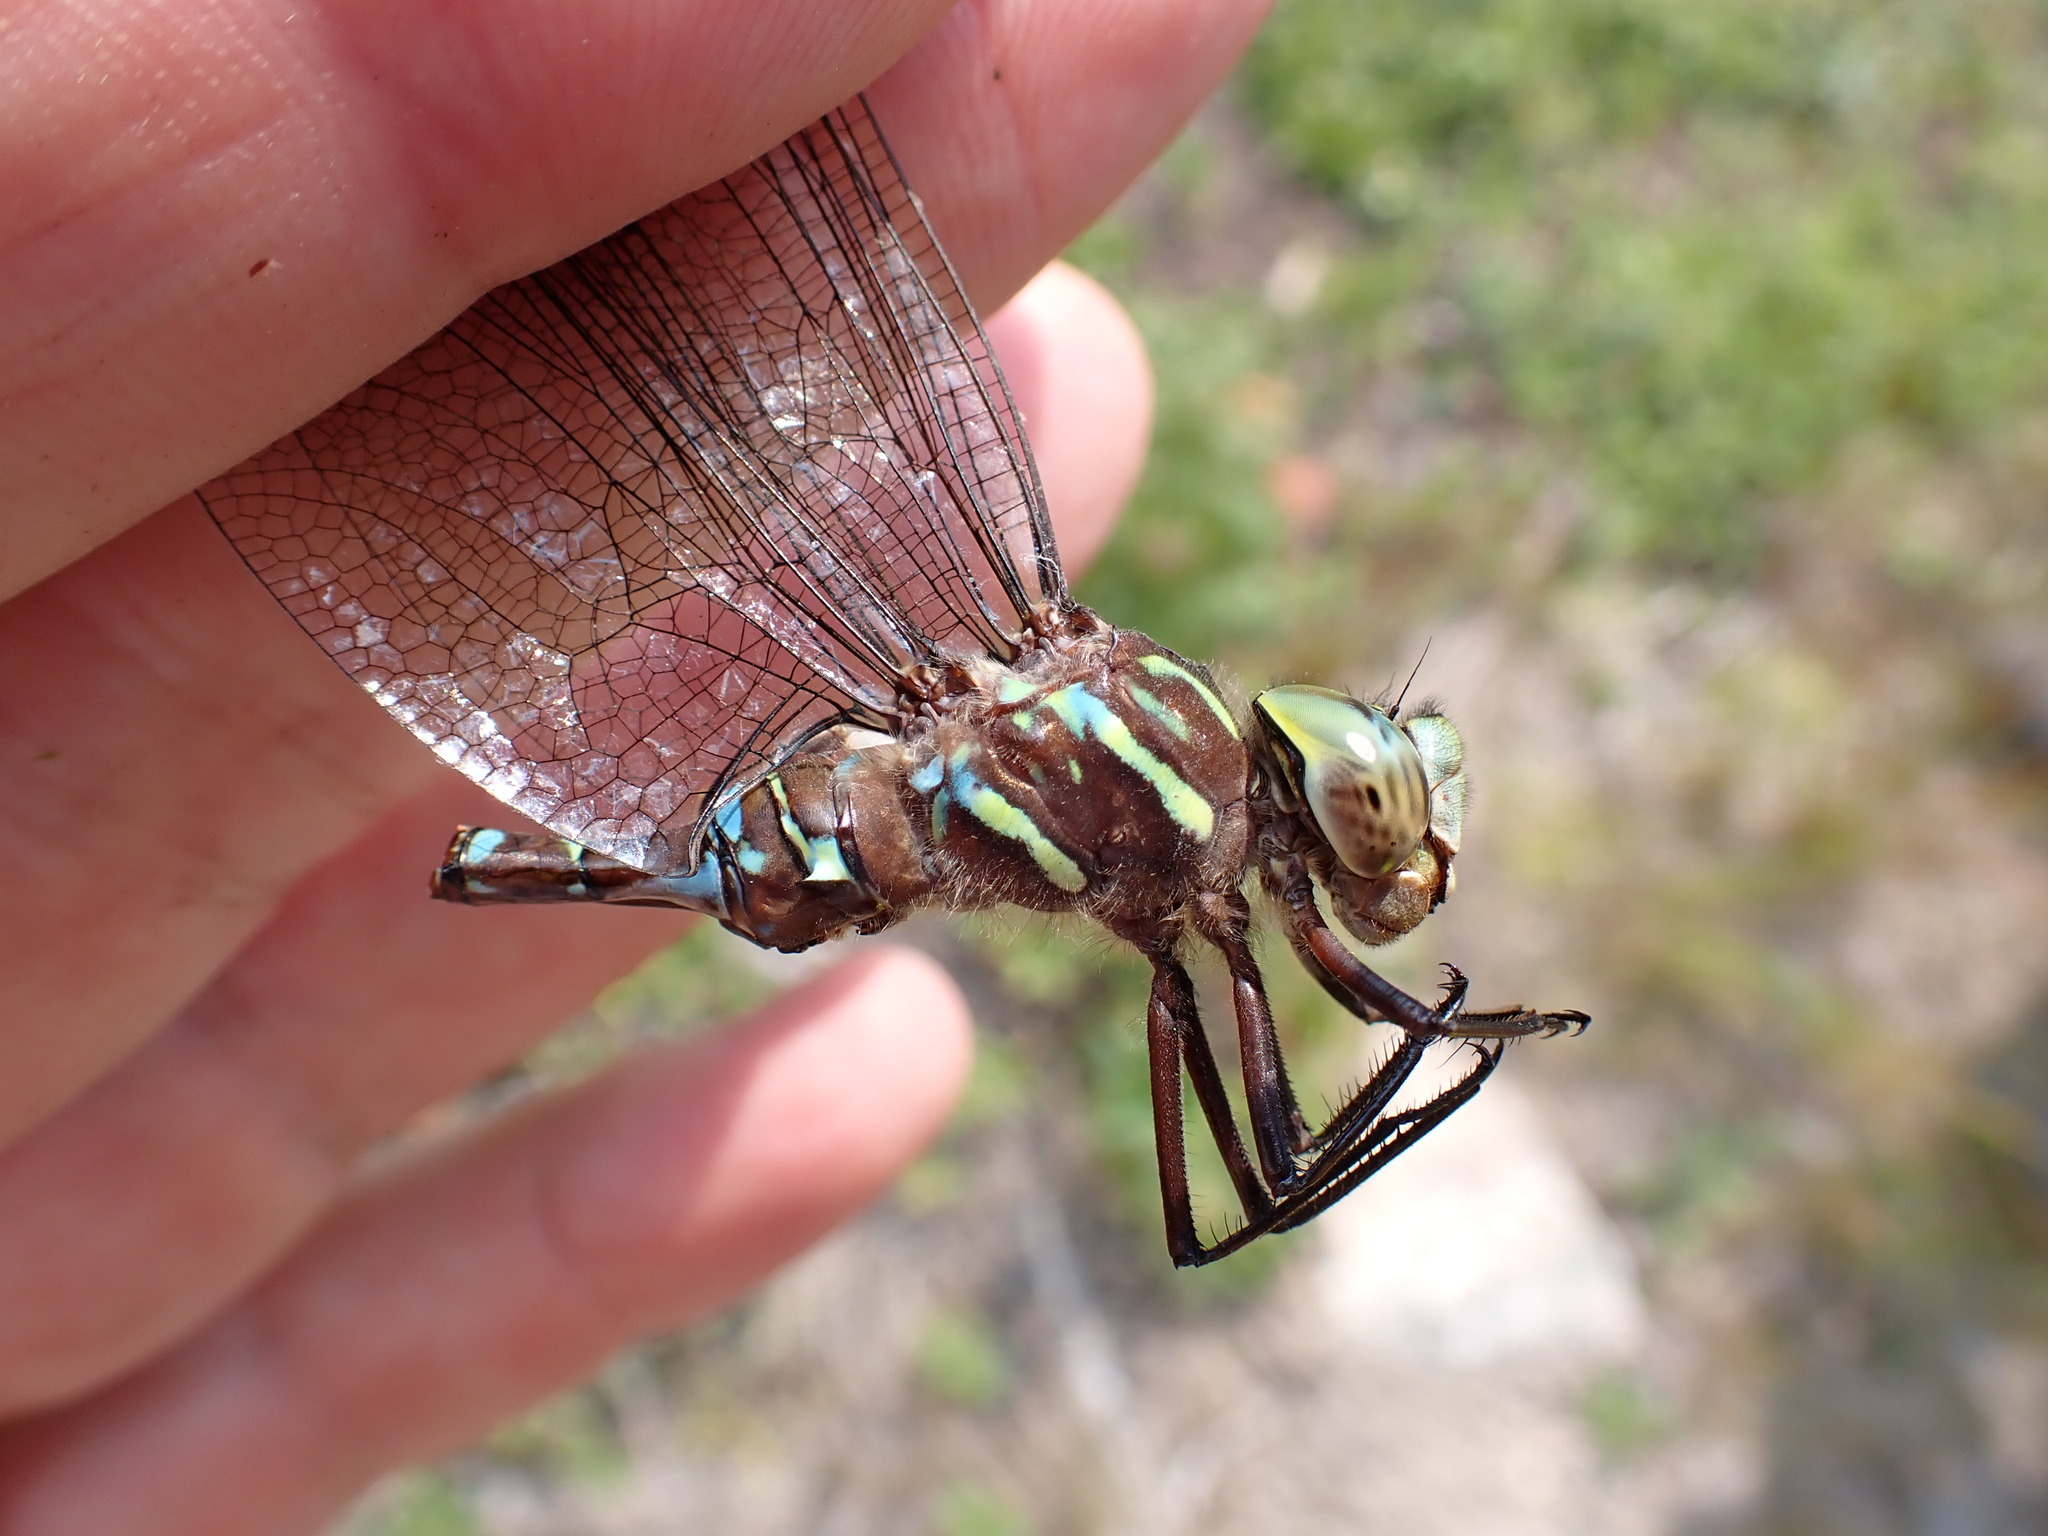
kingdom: Animalia
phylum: Arthropoda
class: Insecta
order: Odonata
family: Aeshnidae
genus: Aeshna
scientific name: Aeshna umbrosa
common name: Shadow darner
